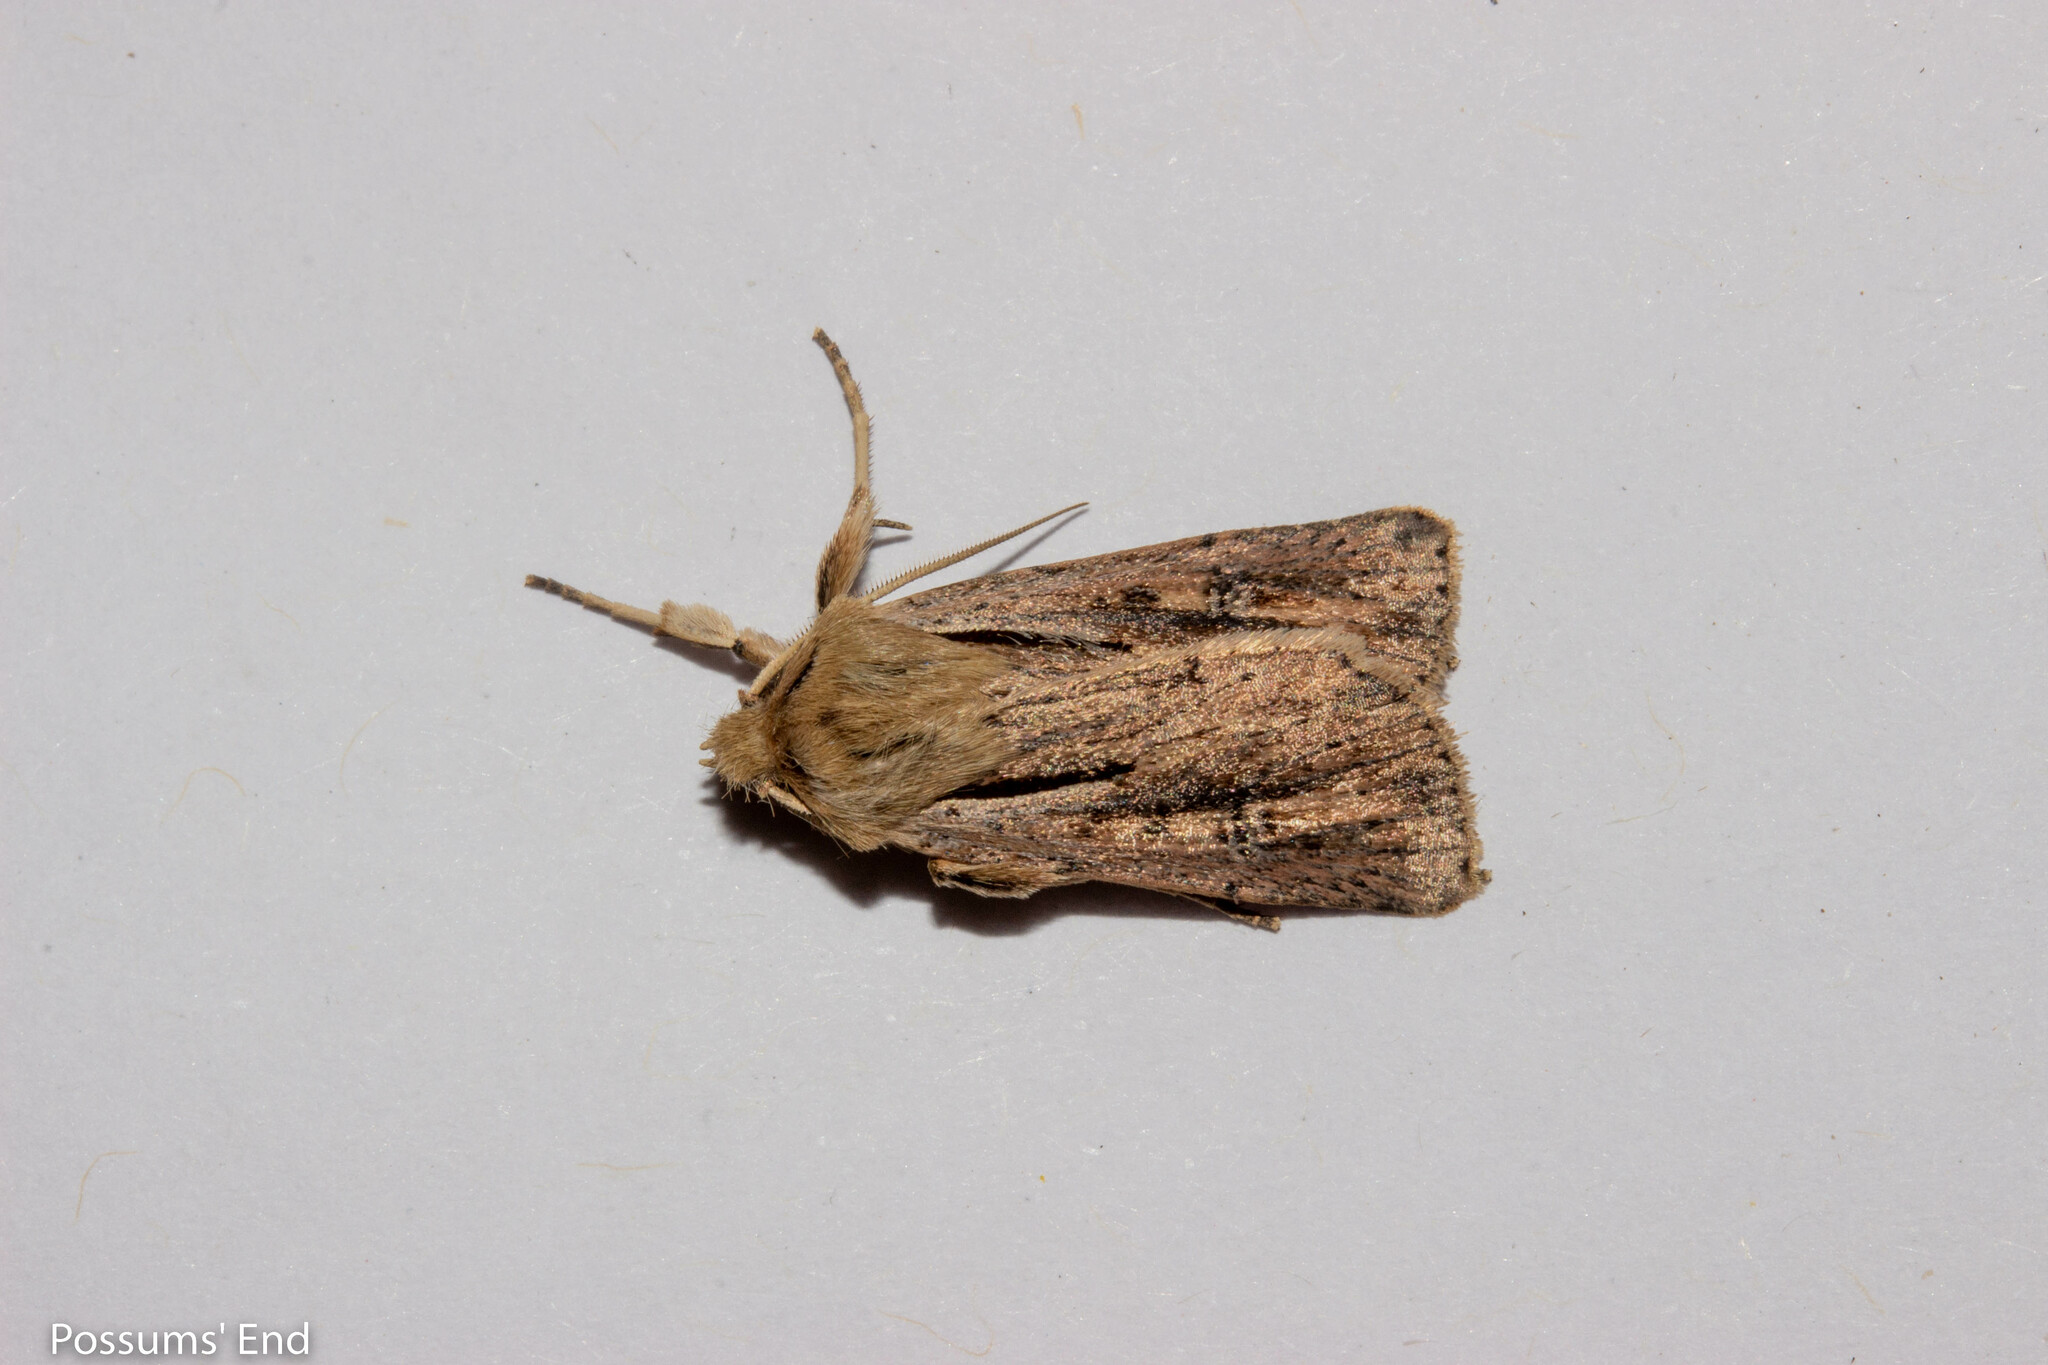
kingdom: Animalia
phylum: Arthropoda
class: Insecta
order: Lepidoptera
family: Noctuidae
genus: Ichneutica
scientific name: Ichneutica propria
